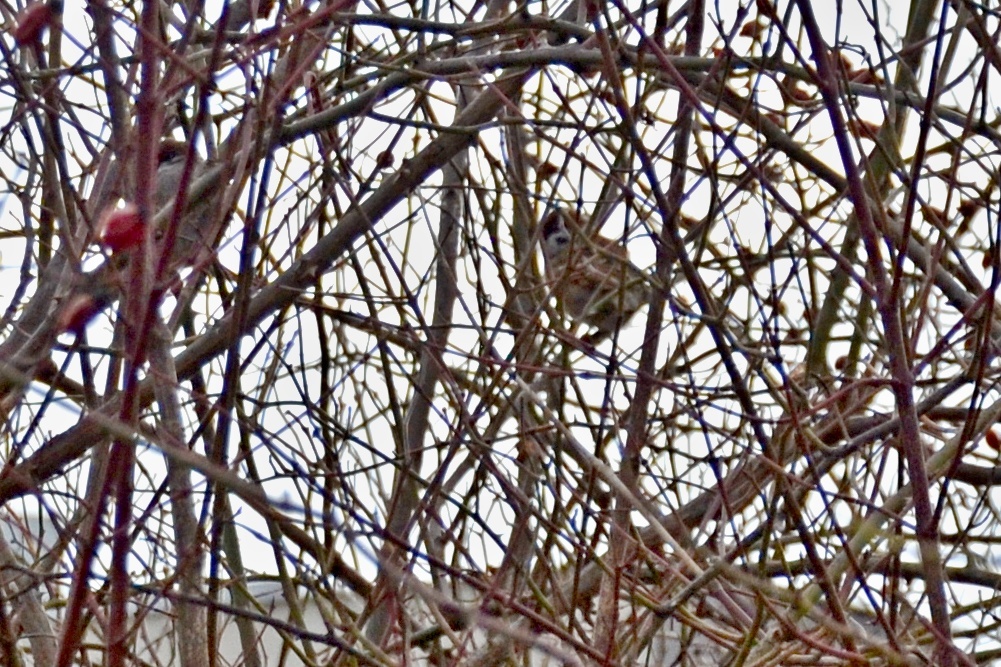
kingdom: Animalia
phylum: Chordata
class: Aves
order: Passeriformes
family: Passeridae
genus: Passer
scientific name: Passer montanus
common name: Eurasian tree sparrow
